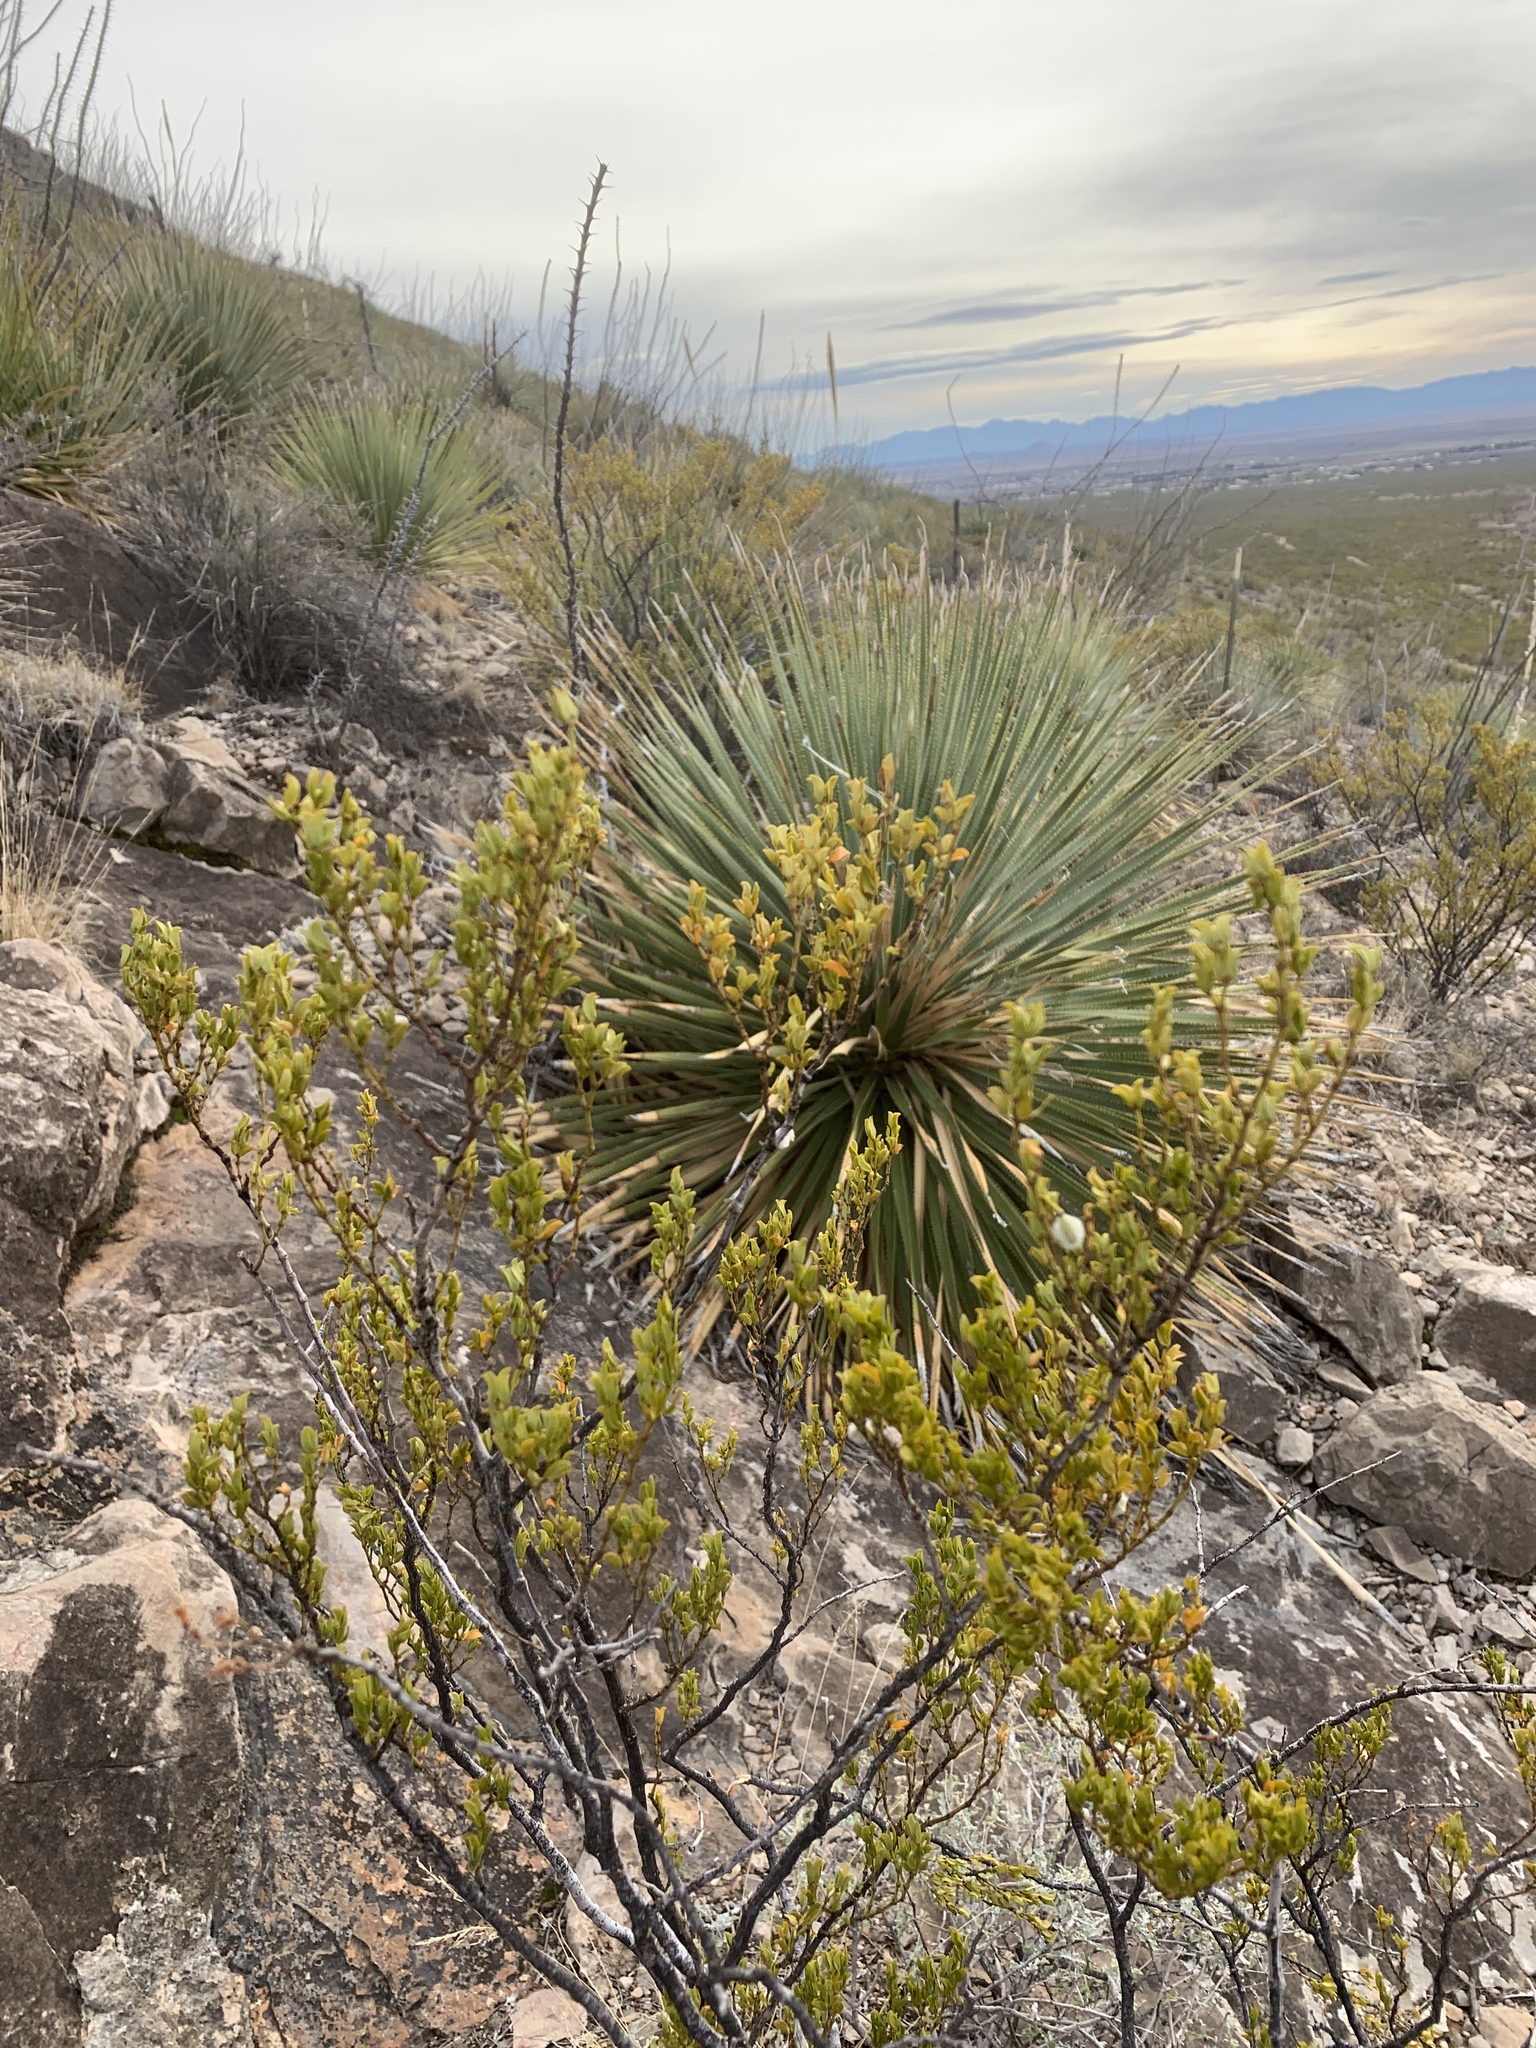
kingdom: Plantae
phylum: Tracheophyta
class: Magnoliopsida
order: Zygophyllales
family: Zygophyllaceae
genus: Larrea
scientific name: Larrea tridentata
